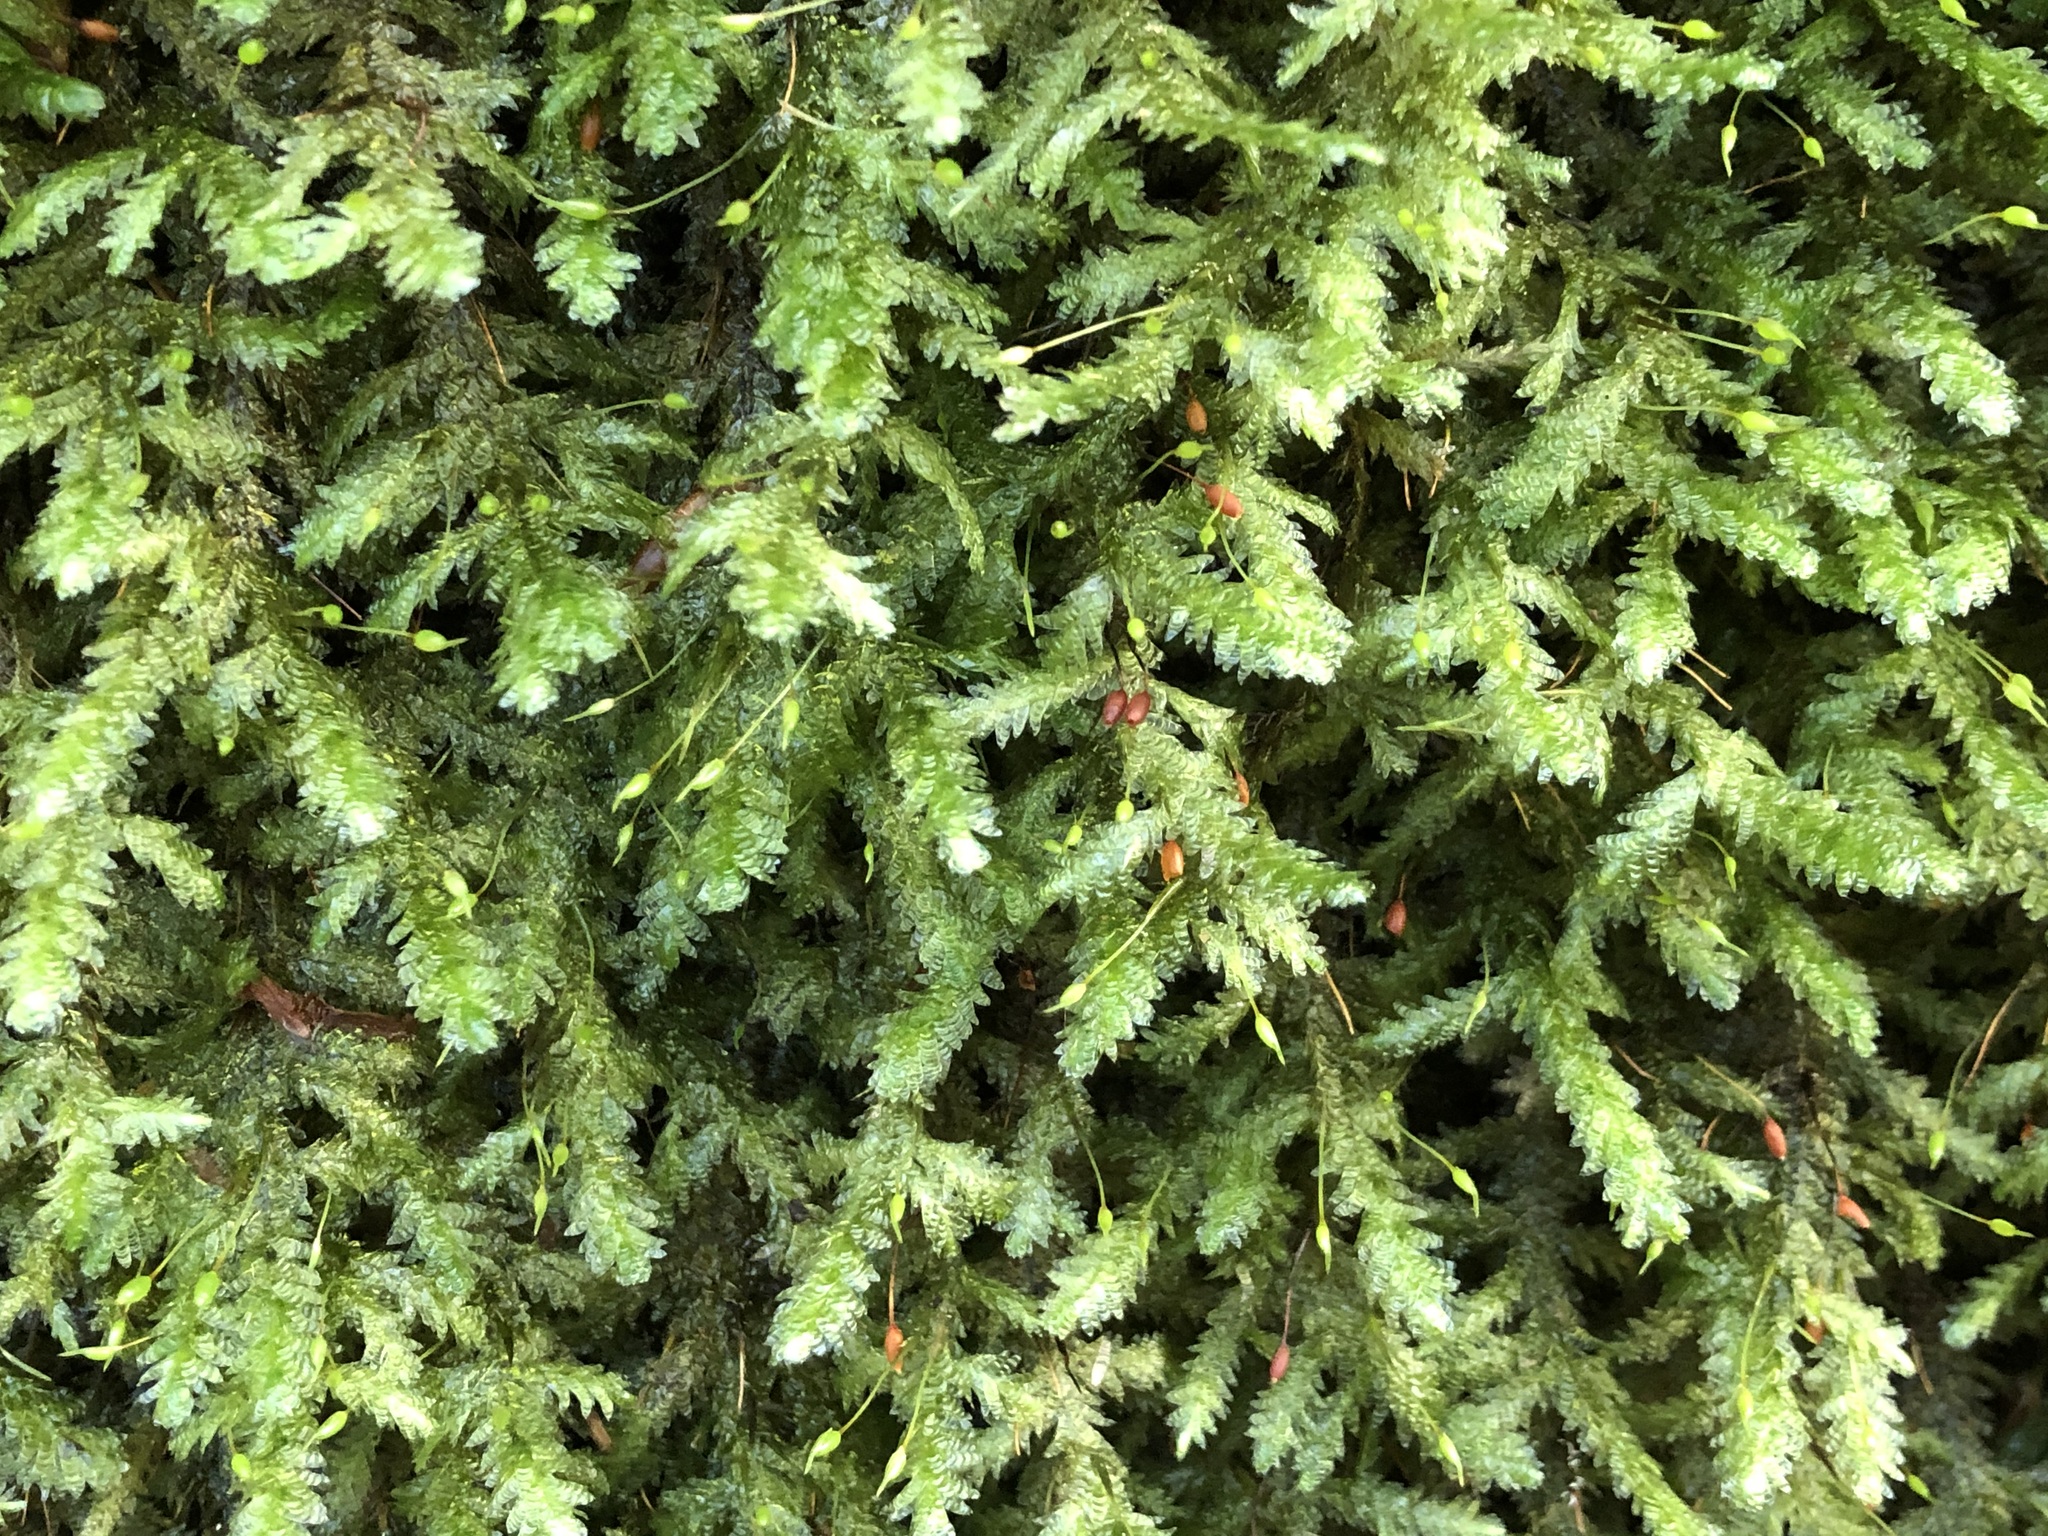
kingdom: Plantae
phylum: Bryophyta
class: Bryopsida
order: Hypnales
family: Neckeraceae
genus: Exsertotheca
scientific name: Exsertotheca crispa
